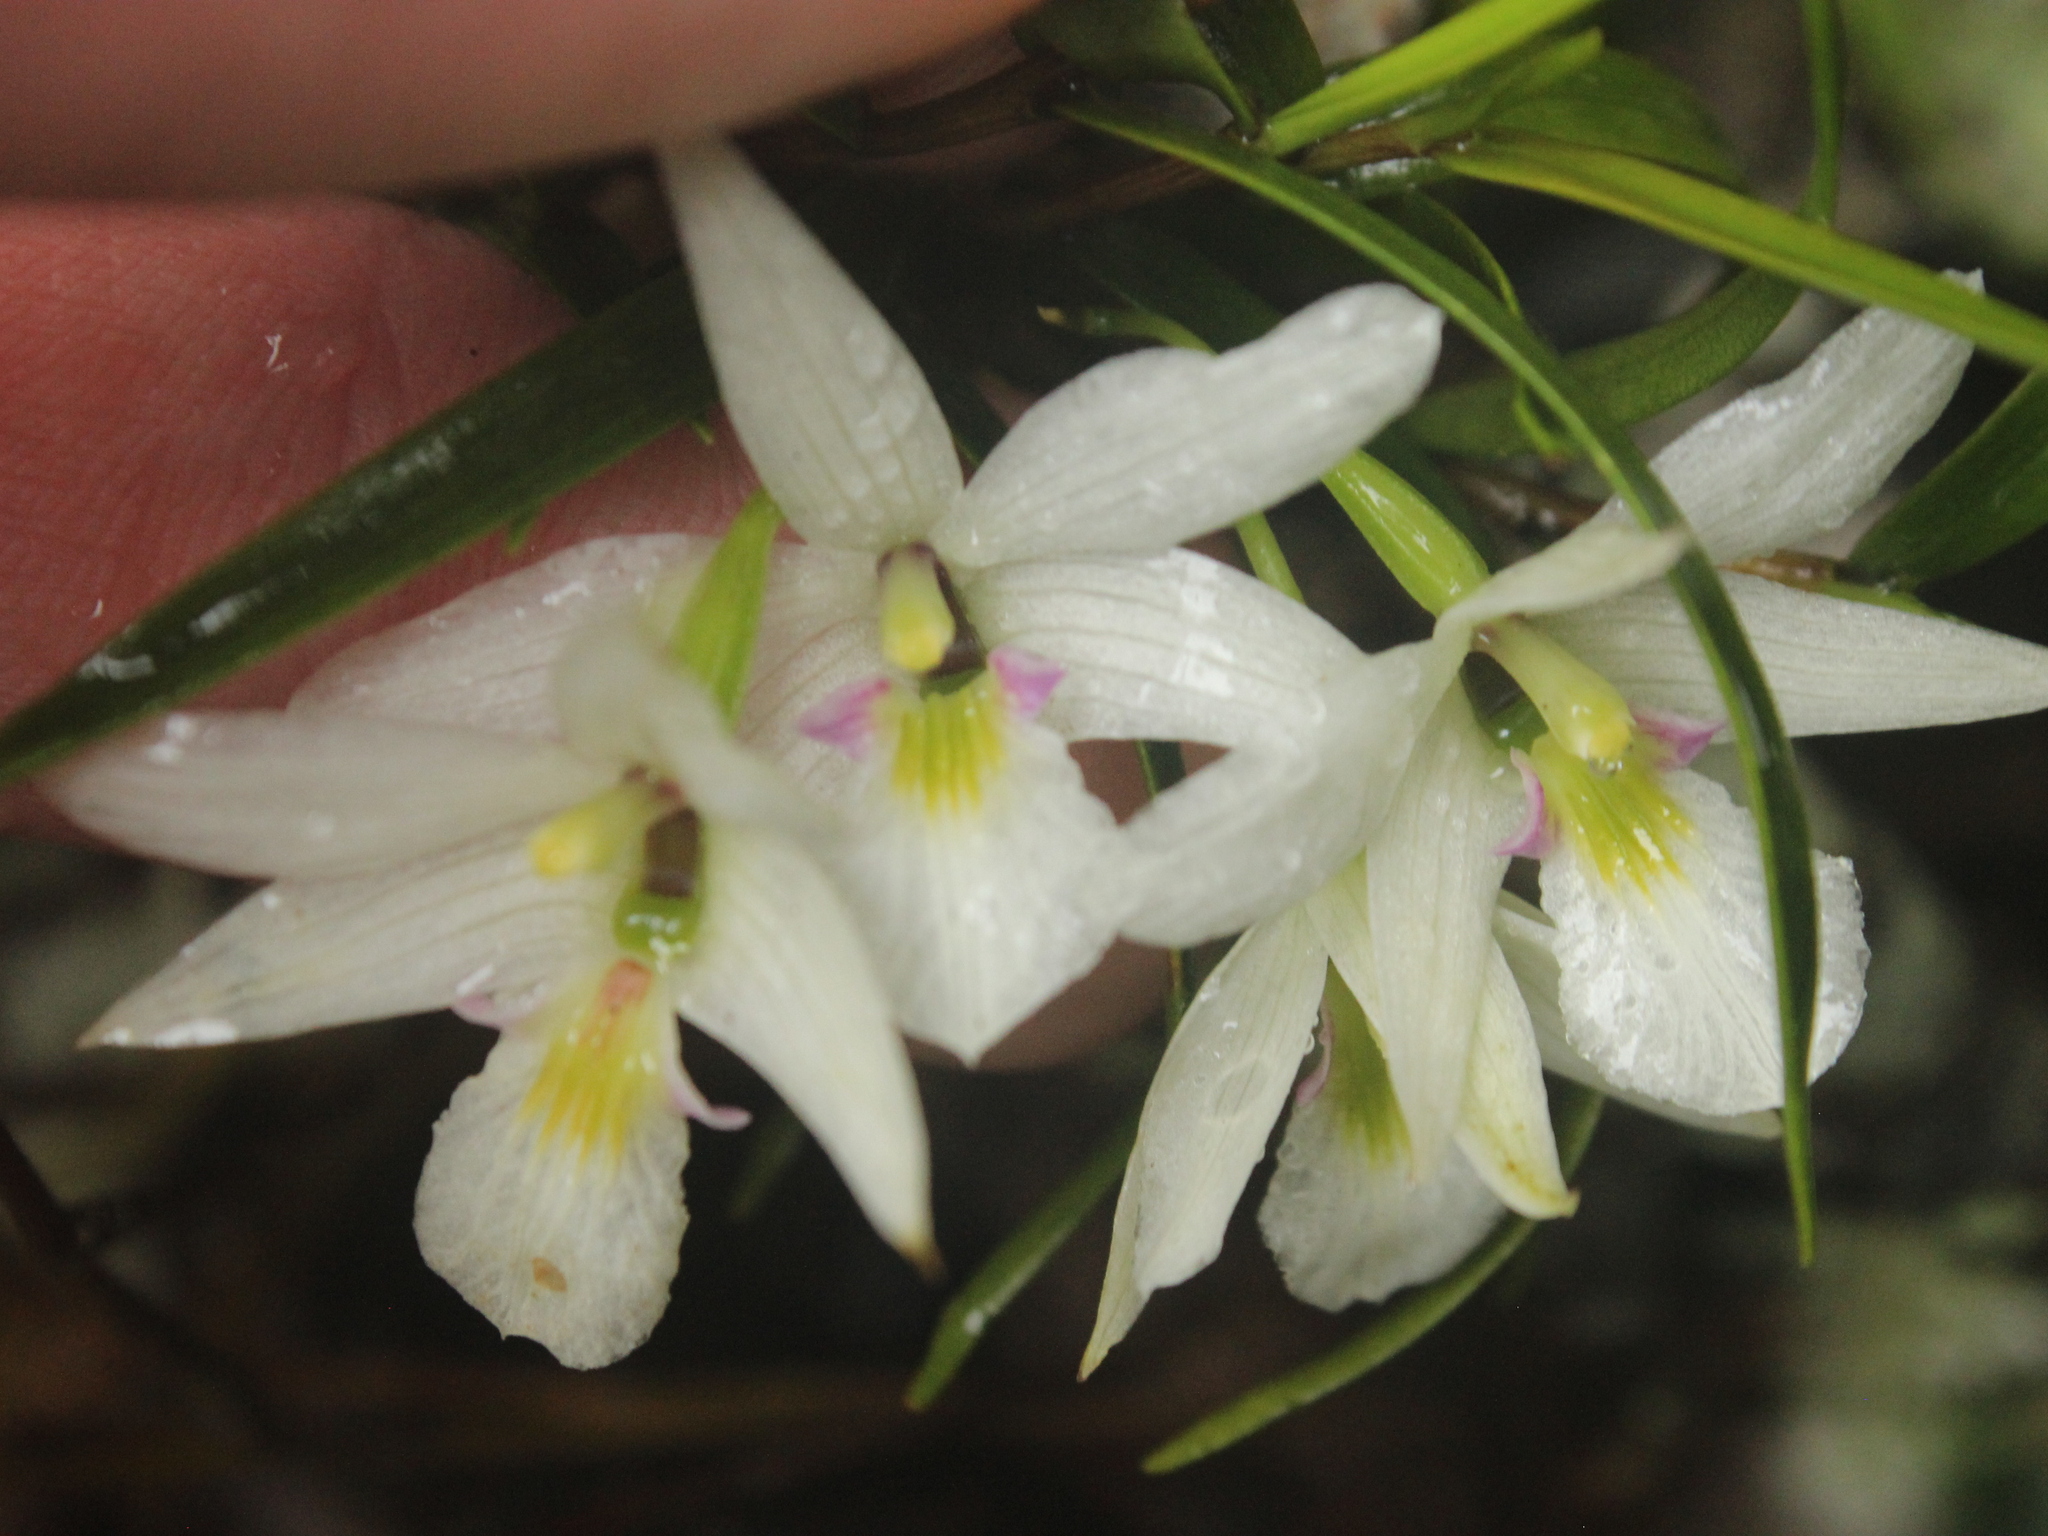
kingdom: Plantae
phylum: Tracheophyta
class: Liliopsida
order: Asparagales
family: Orchidaceae
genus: Dendrobium
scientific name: Dendrobium cunninghamii
